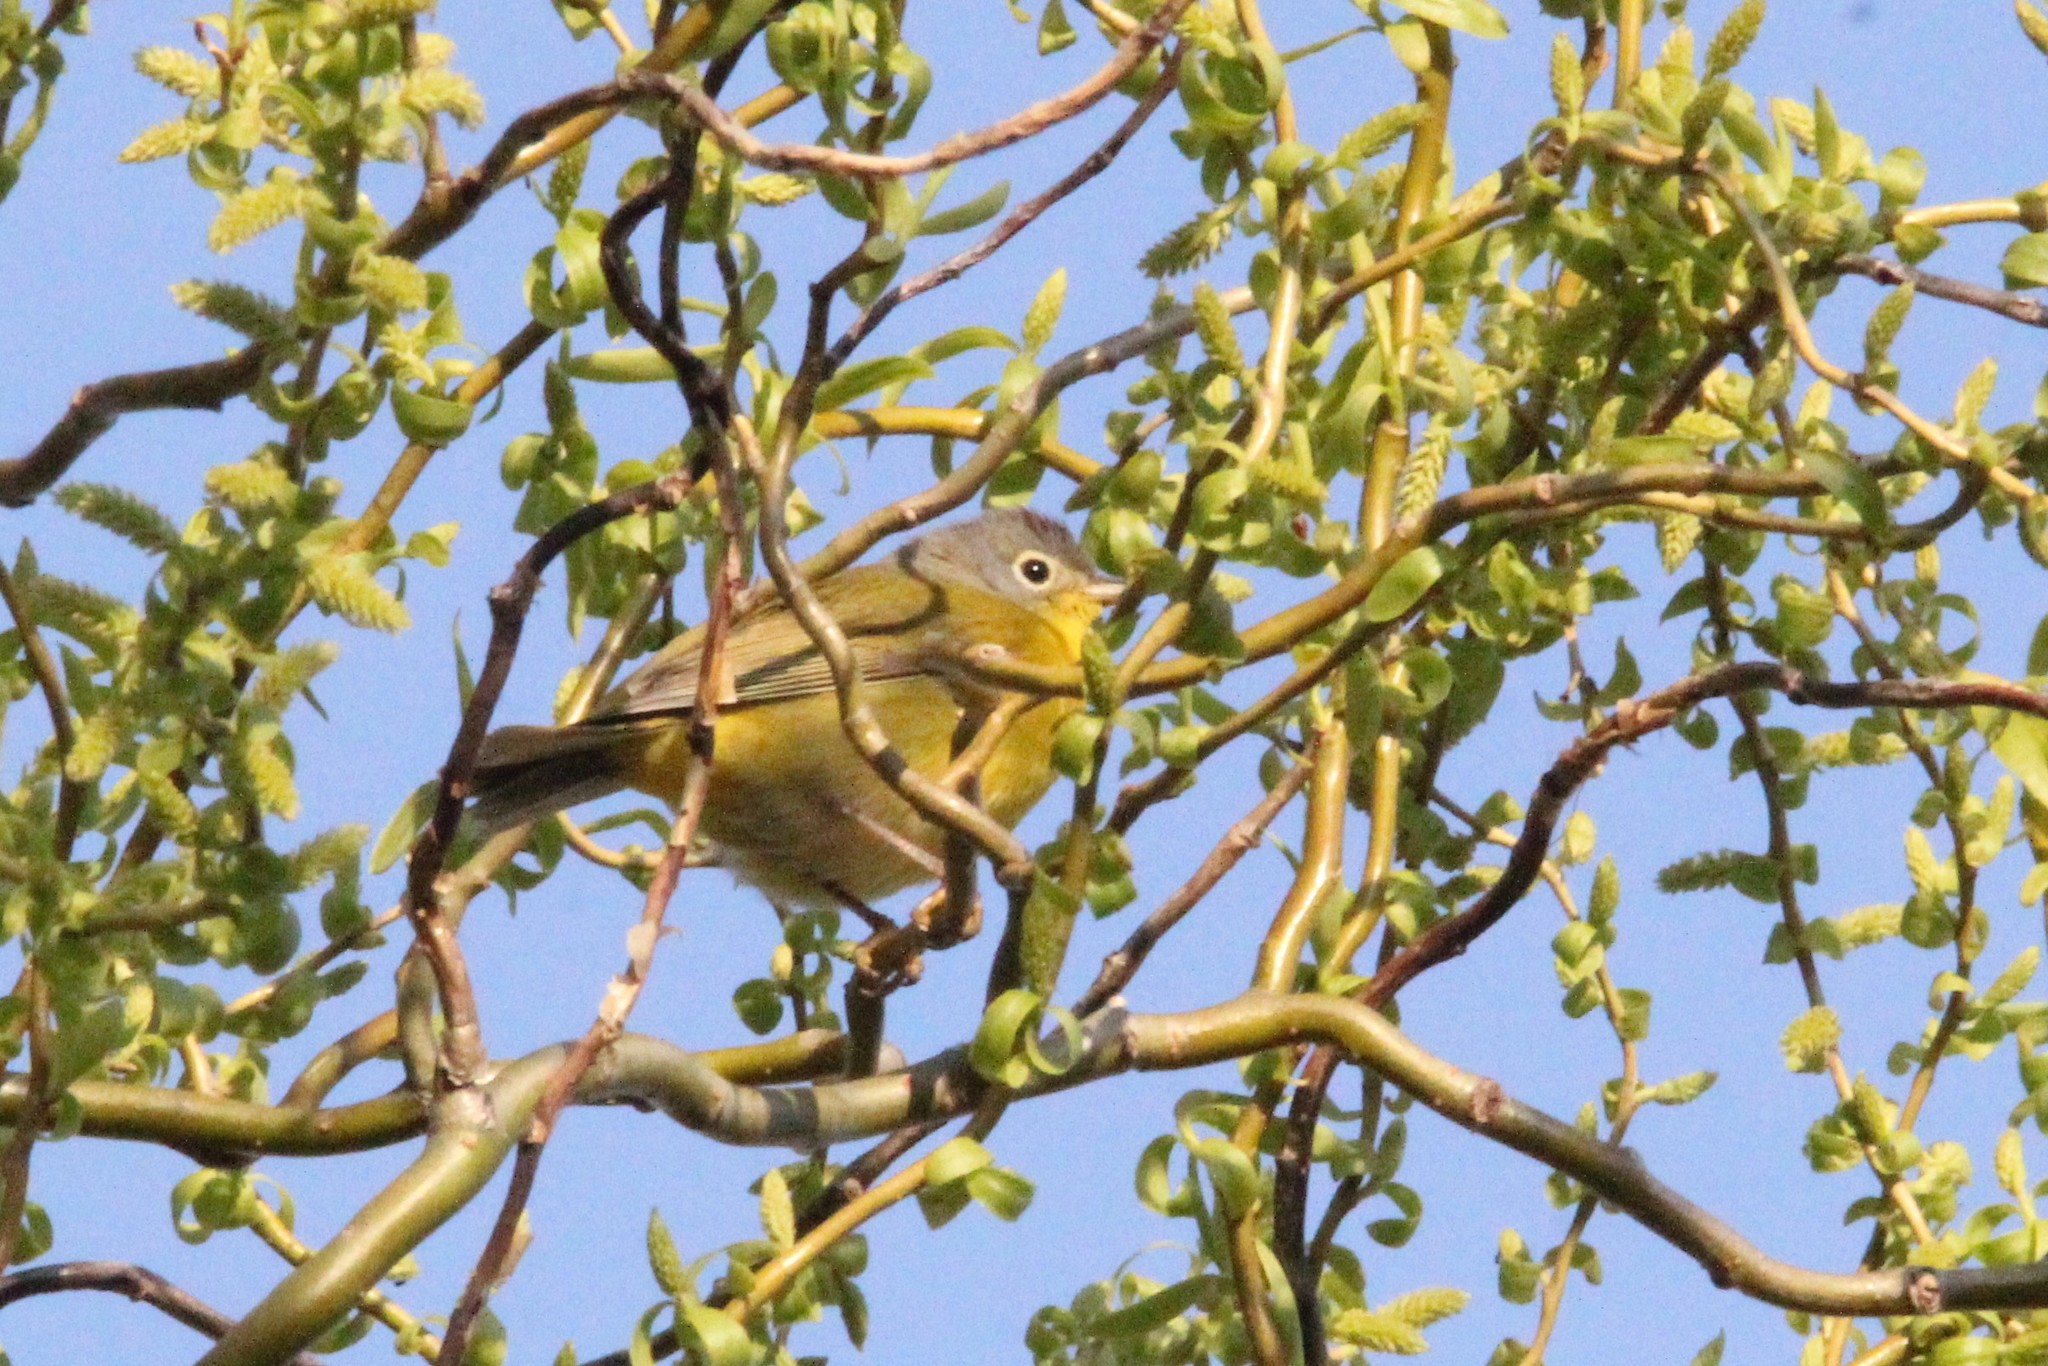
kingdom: Animalia
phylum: Chordata
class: Aves
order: Passeriformes
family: Parulidae
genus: Leiothlypis
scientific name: Leiothlypis ruficapilla
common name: Nashville warbler
